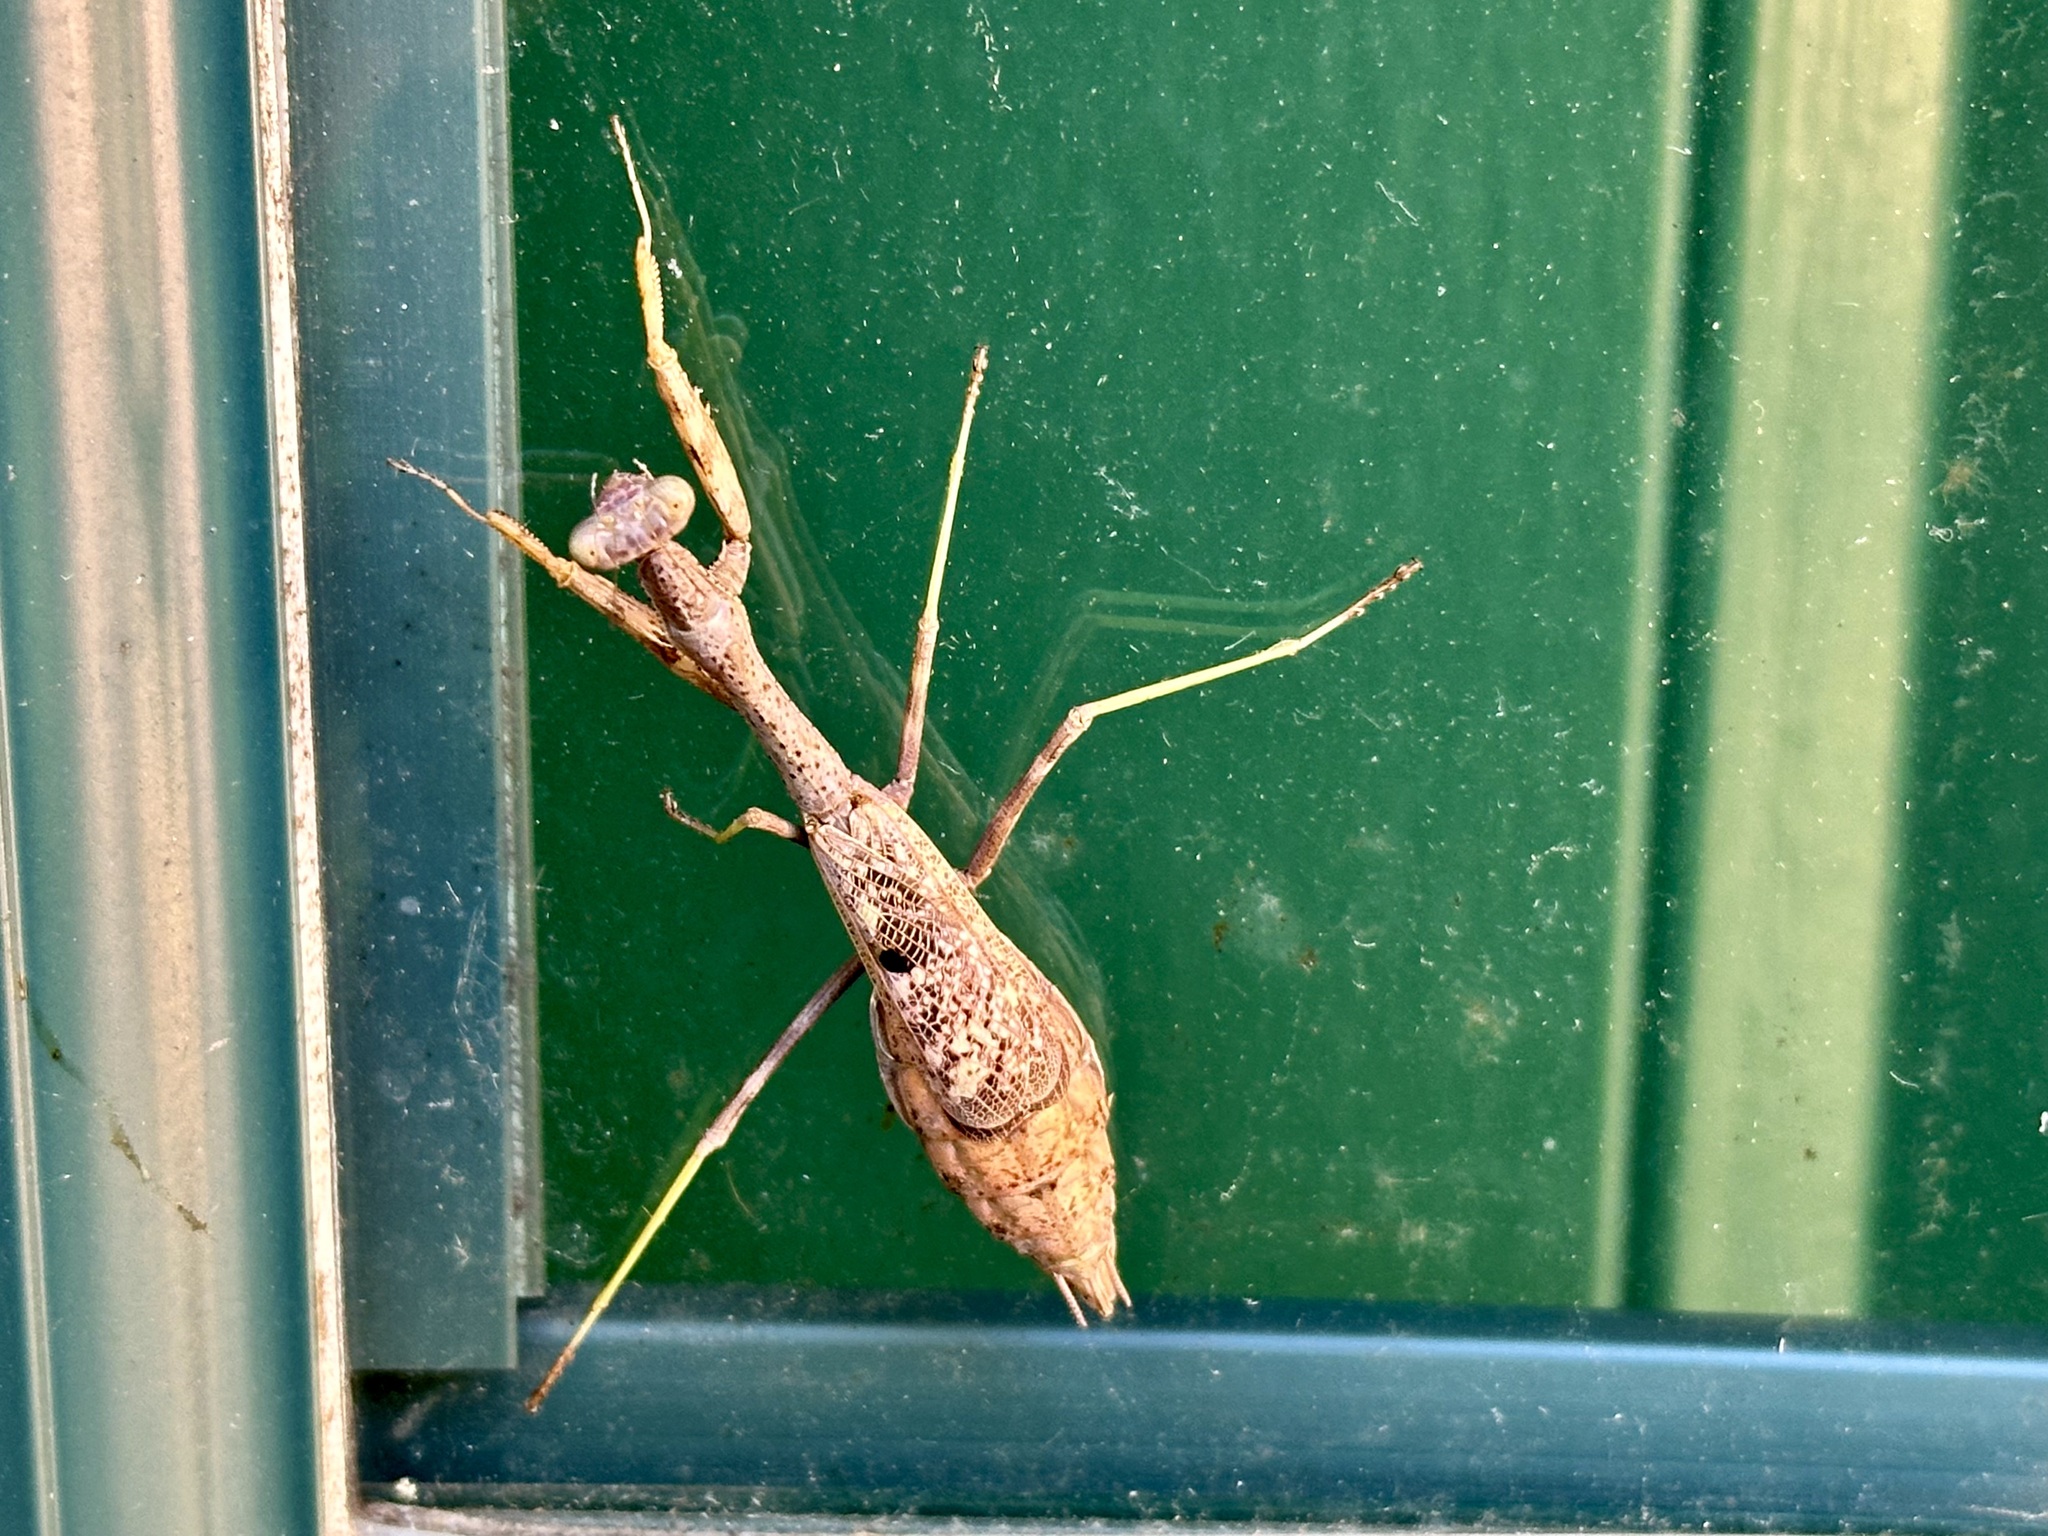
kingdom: Animalia
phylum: Arthropoda
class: Insecta
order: Mantodea
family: Mantidae
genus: Stagmomantis
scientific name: Stagmomantis carolina
